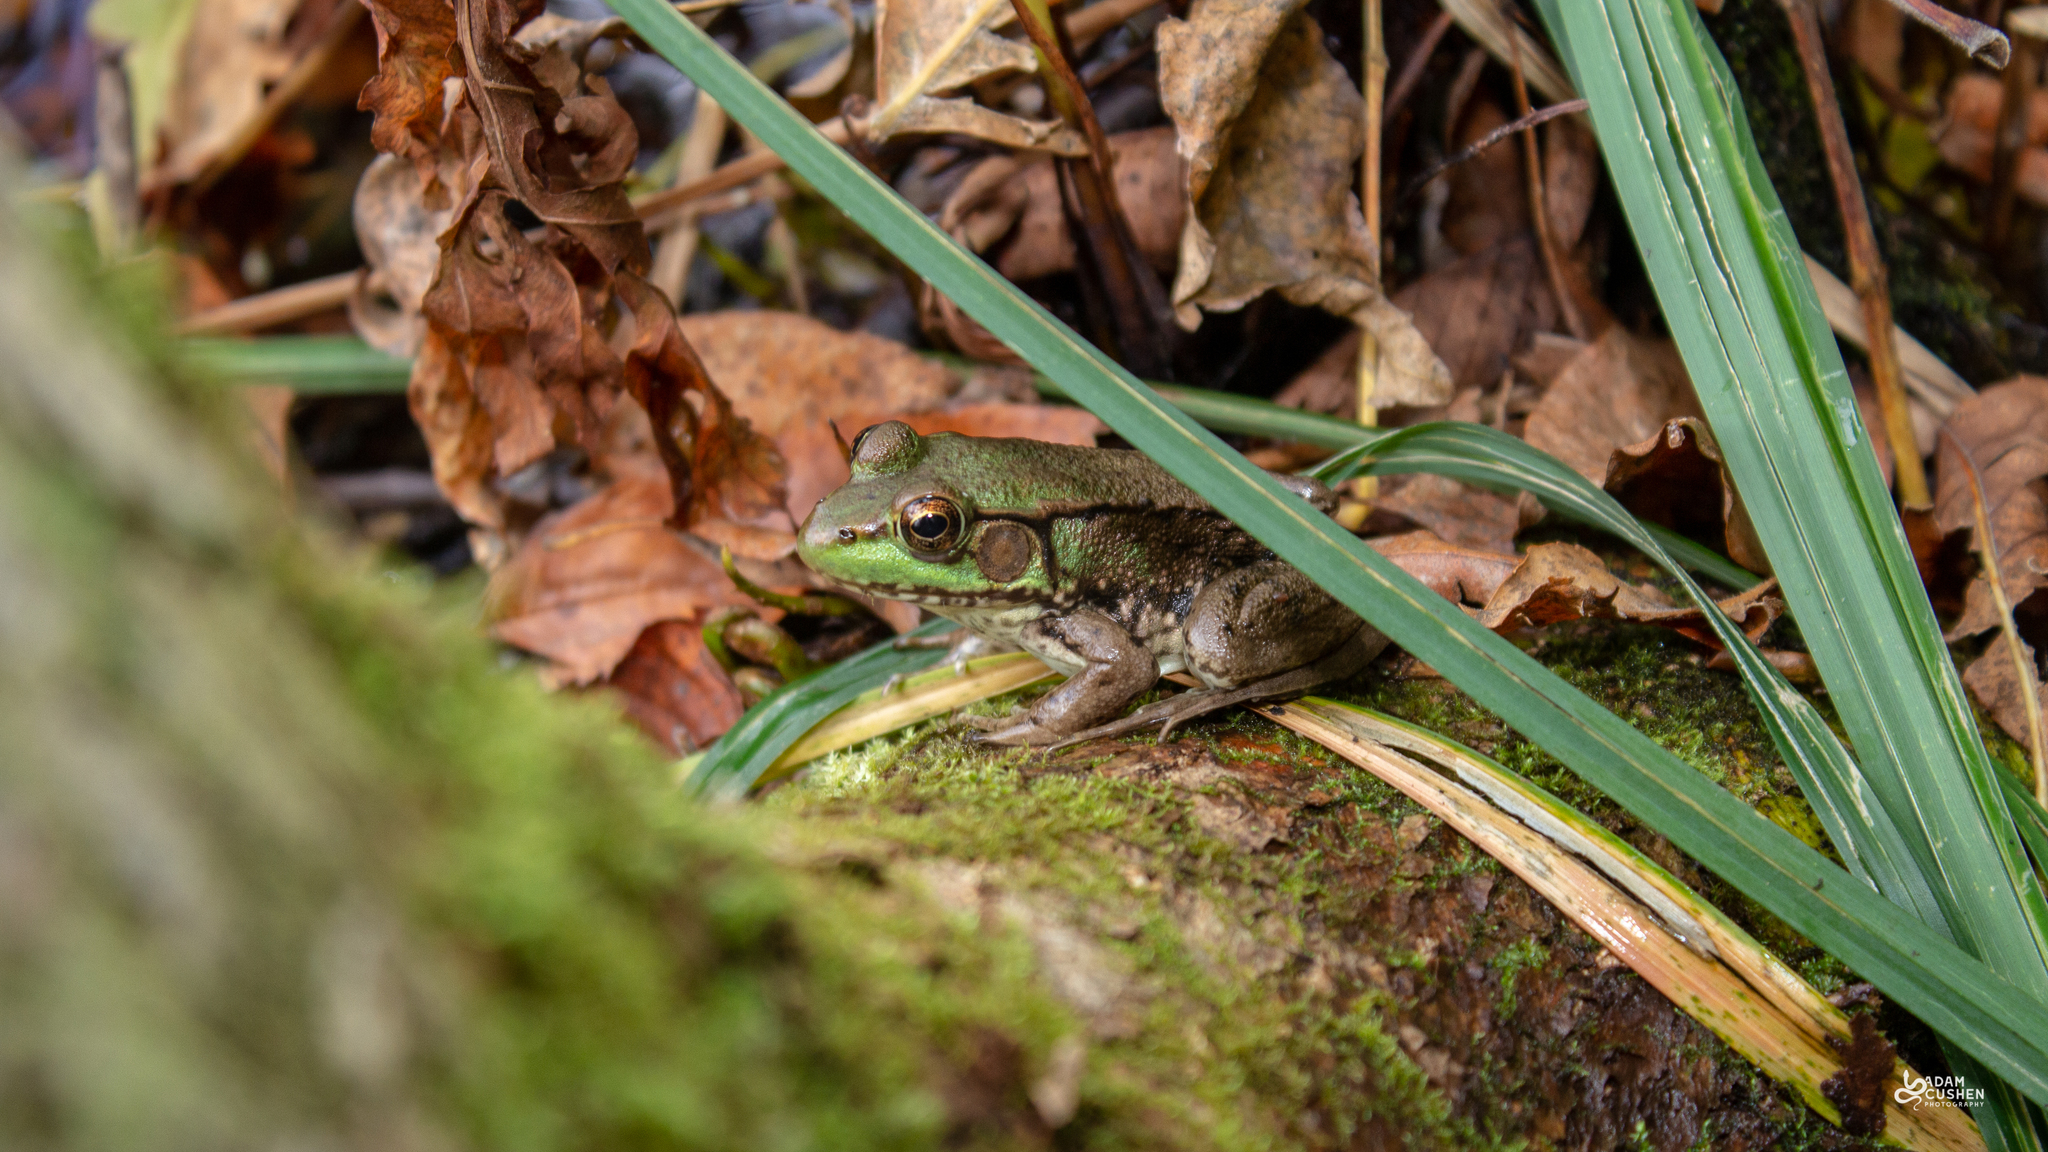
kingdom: Animalia
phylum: Chordata
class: Amphibia
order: Anura
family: Ranidae
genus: Lithobates
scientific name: Lithobates clamitans
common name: Green frog
